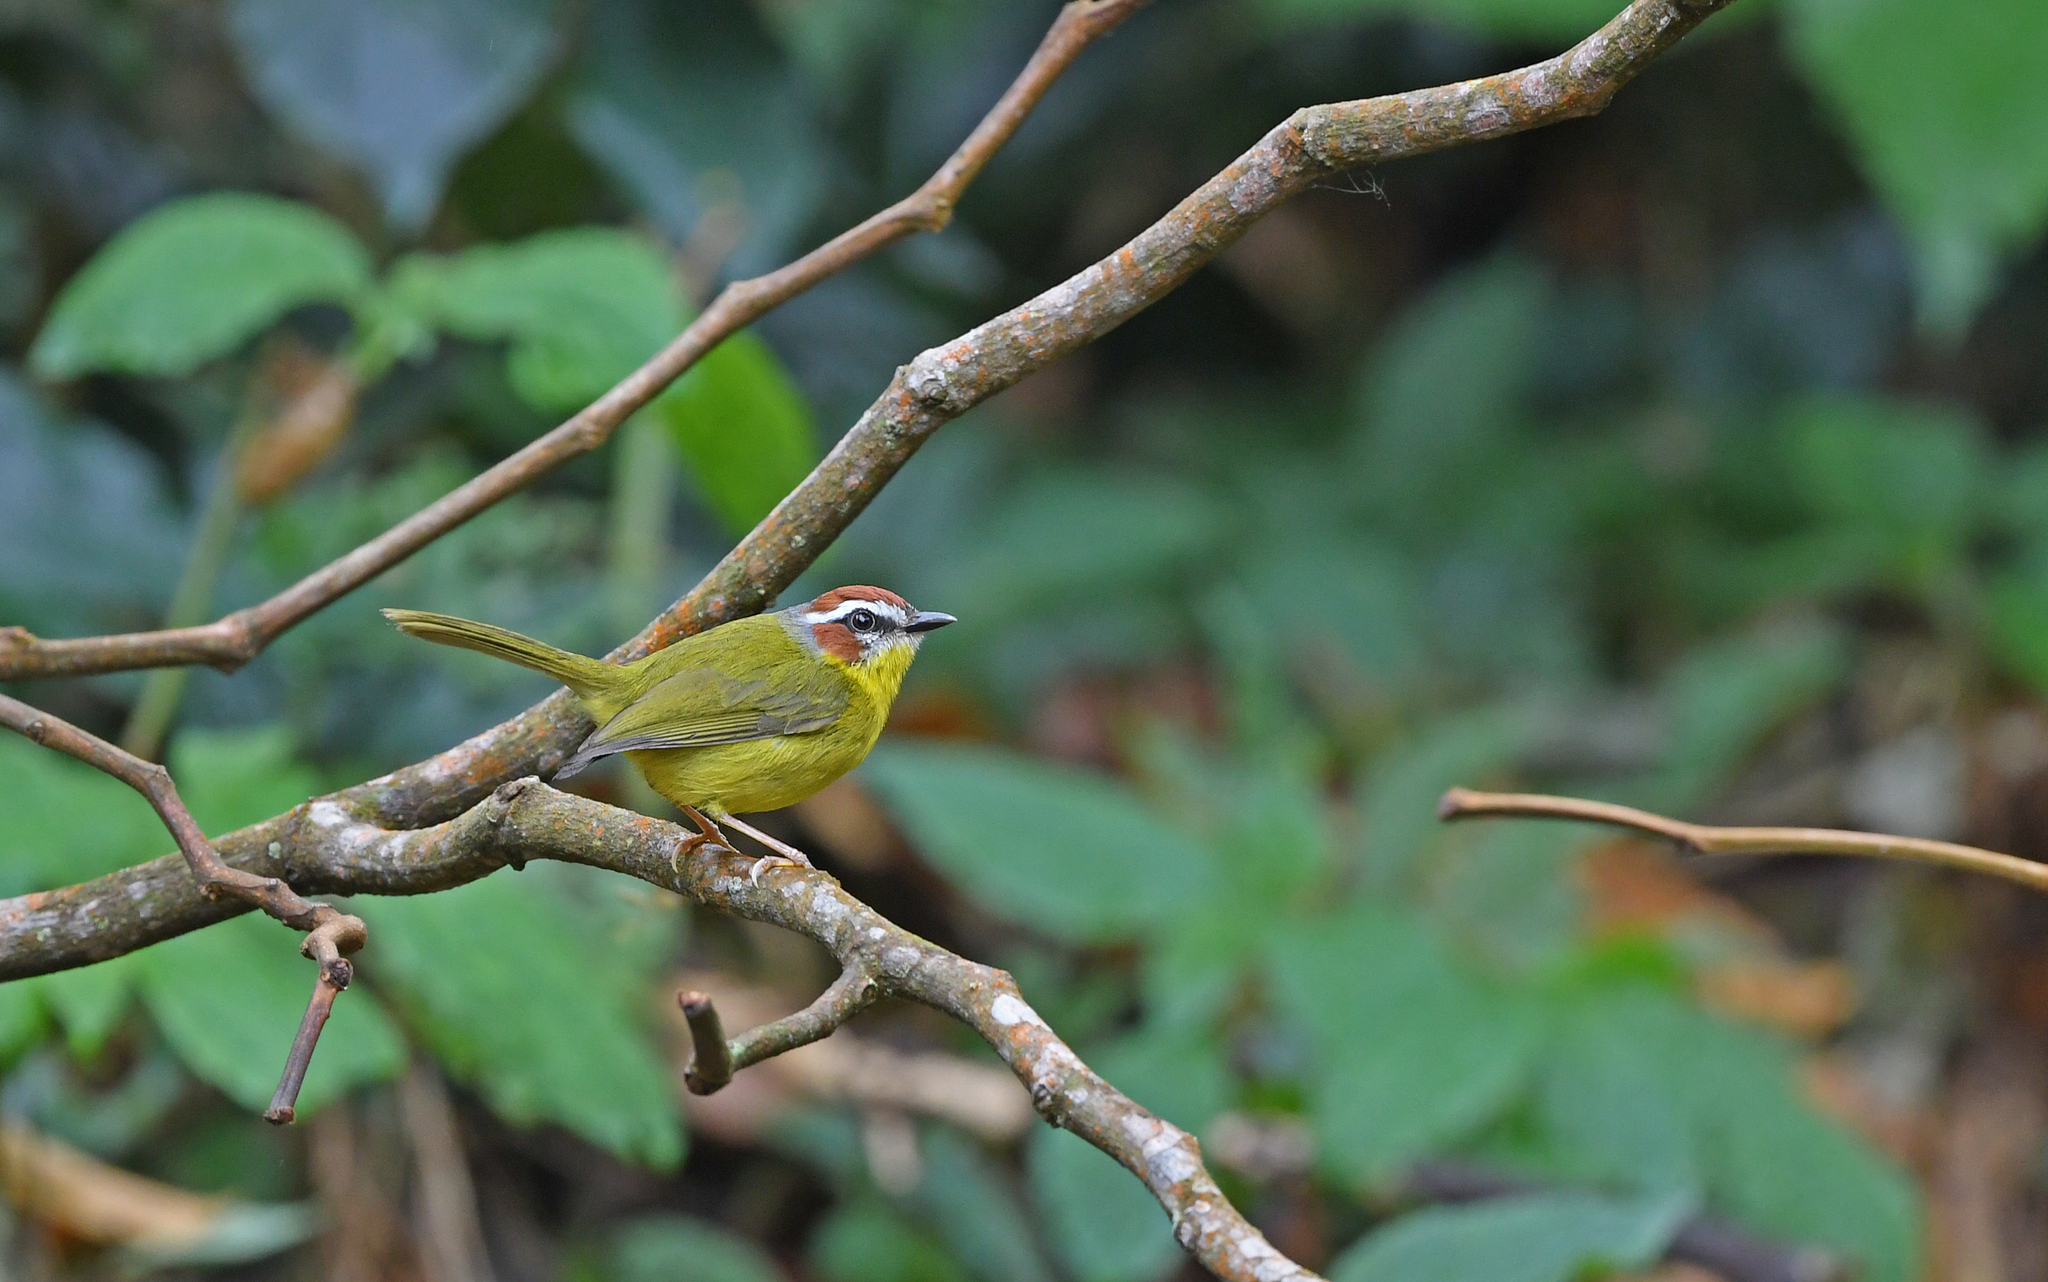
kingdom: Animalia
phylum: Chordata
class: Aves
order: Passeriformes
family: Parulidae
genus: Basileuterus
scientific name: Basileuterus rufifrons
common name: Rufous-capped warbler
